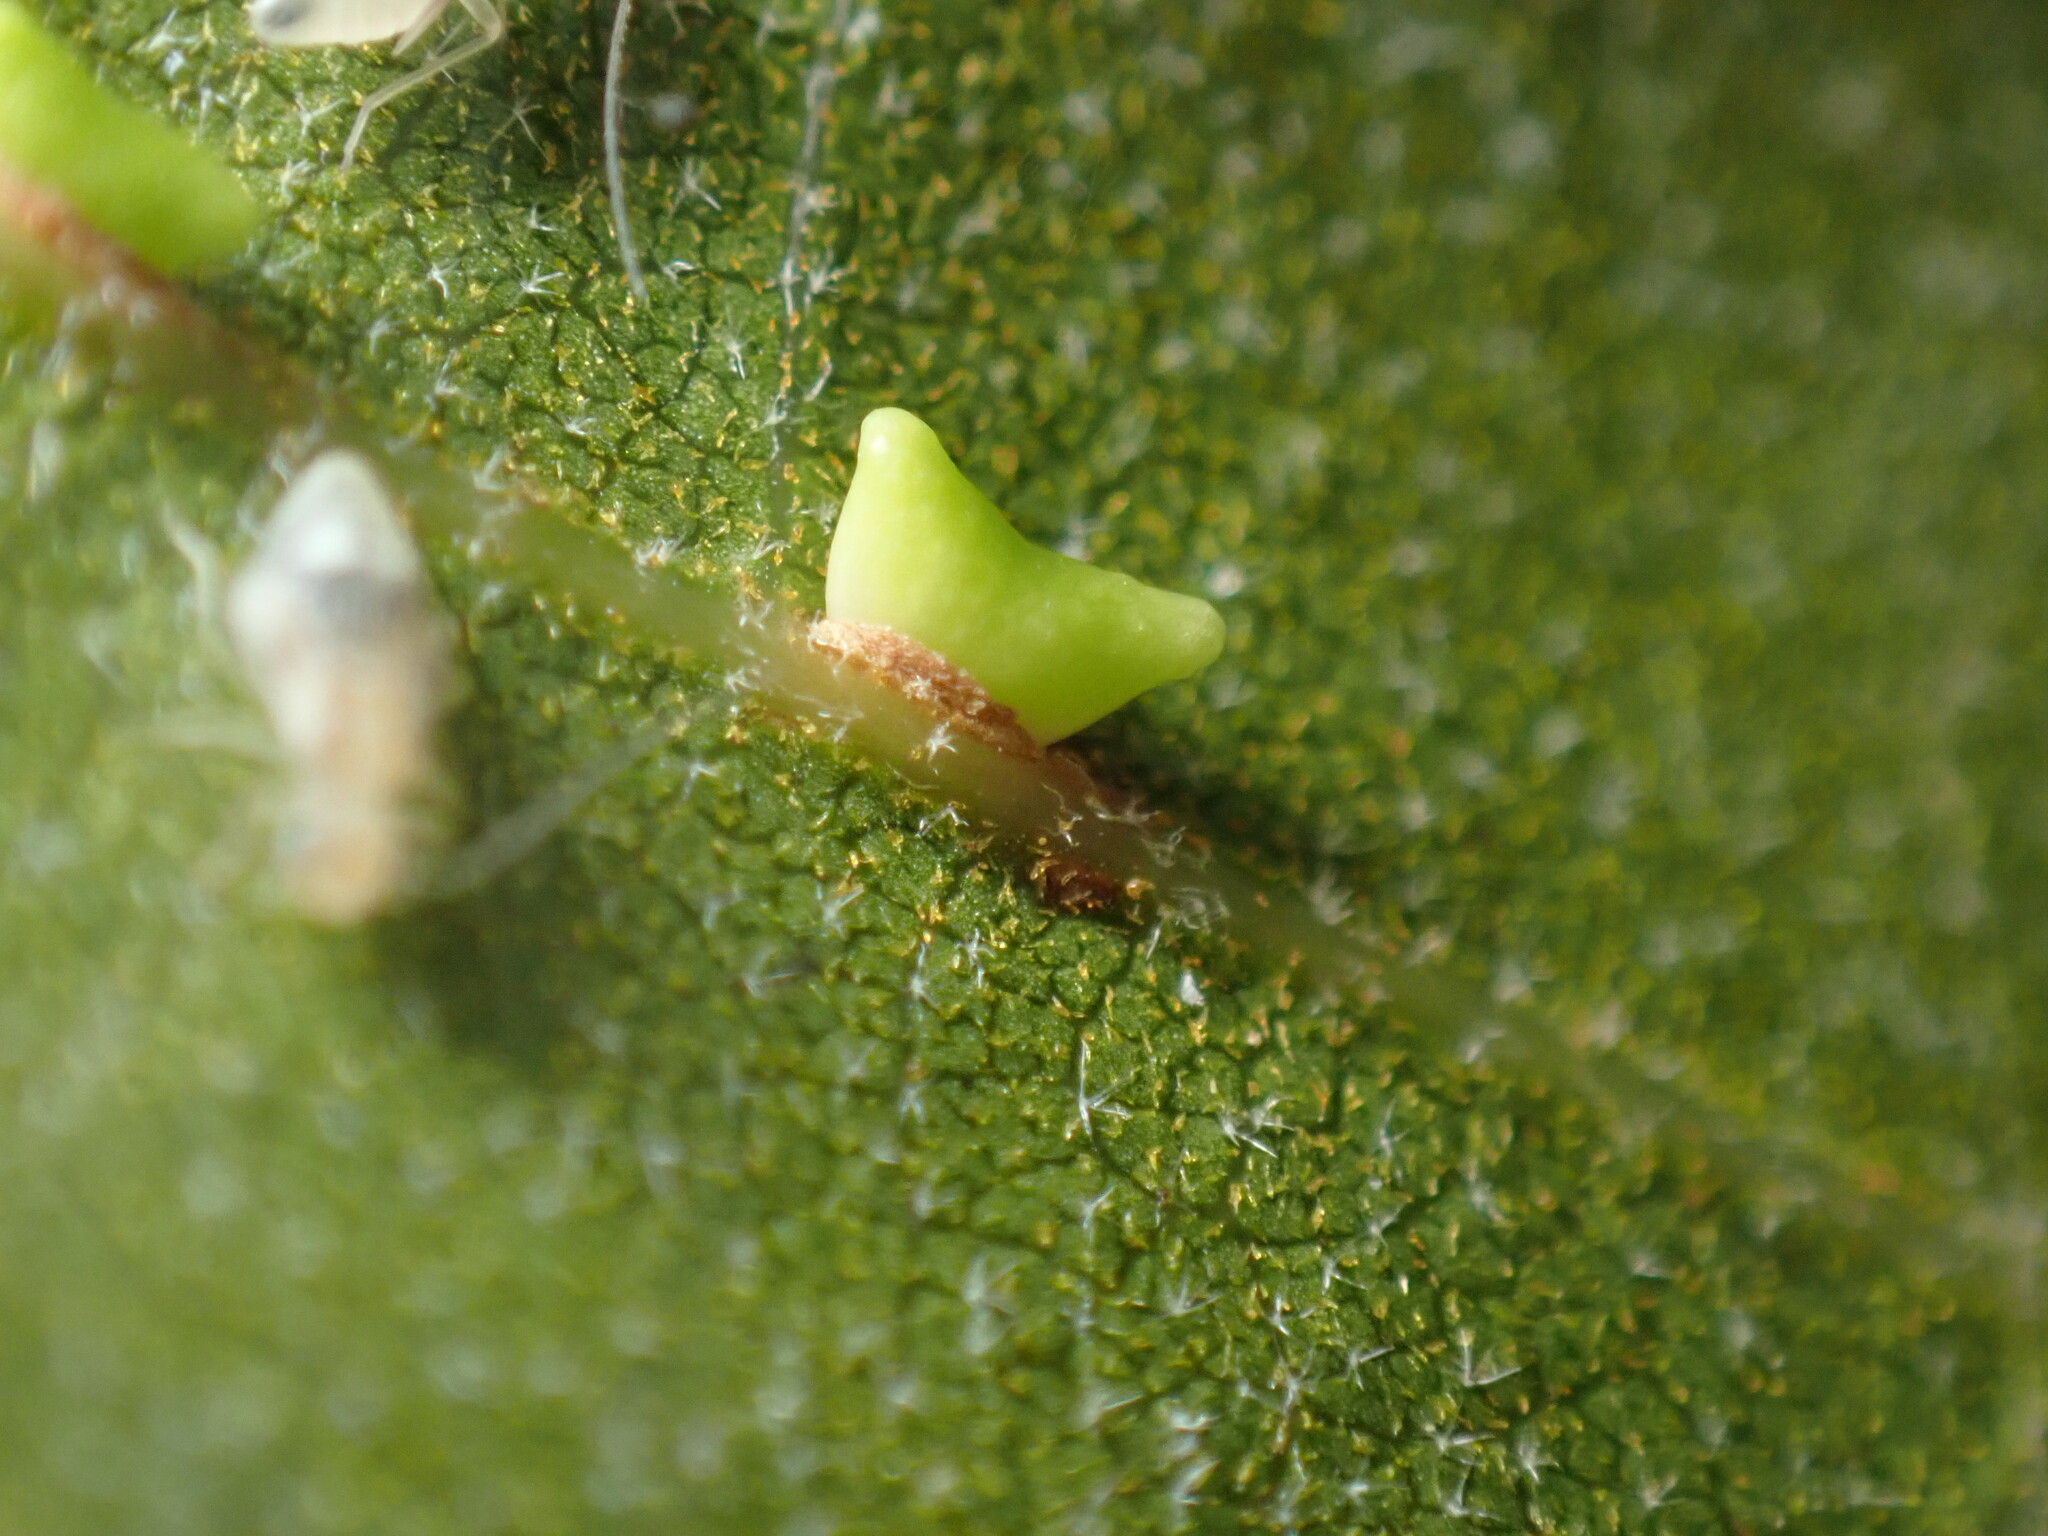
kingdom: Animalia
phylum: Arthropoda
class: Insecta
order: Hymenoptera
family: Cynipidae
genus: Dryocosmus
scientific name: Dryocosmus
